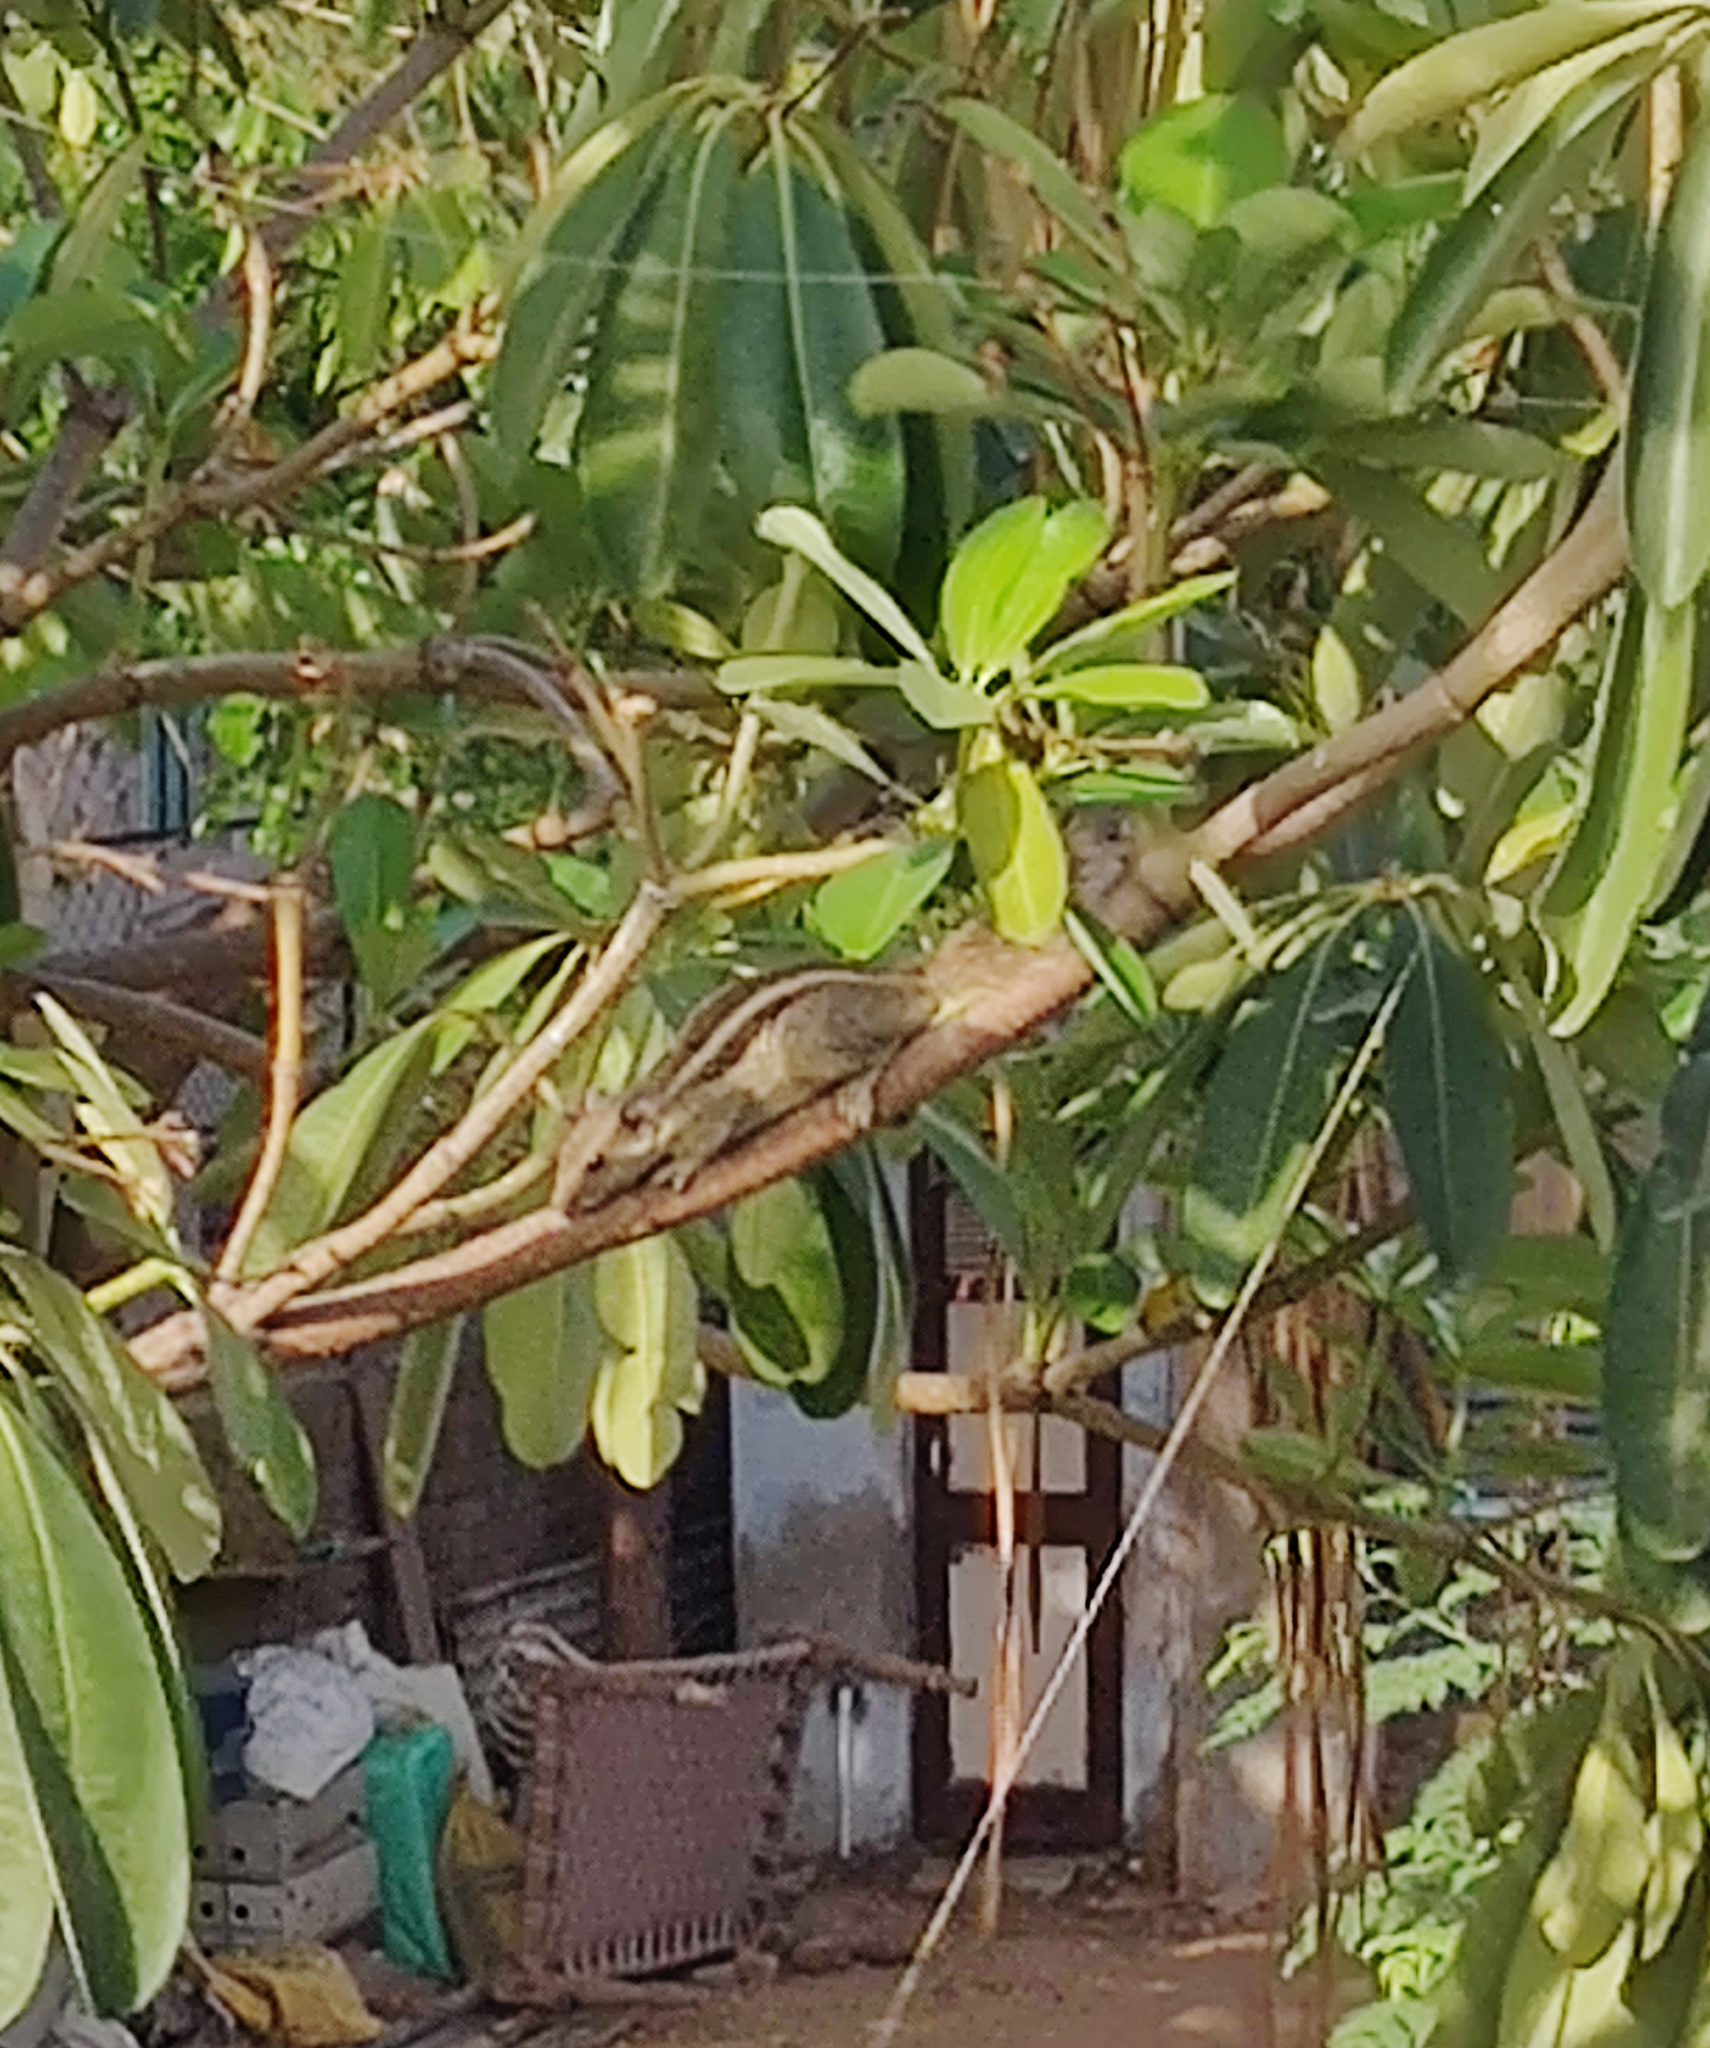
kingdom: Animalia
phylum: Chordata
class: Mammalia
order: Rodentia
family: Sciuridae
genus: Funambulus
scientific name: Funambulus pennantii
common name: Northern palm squirrel
